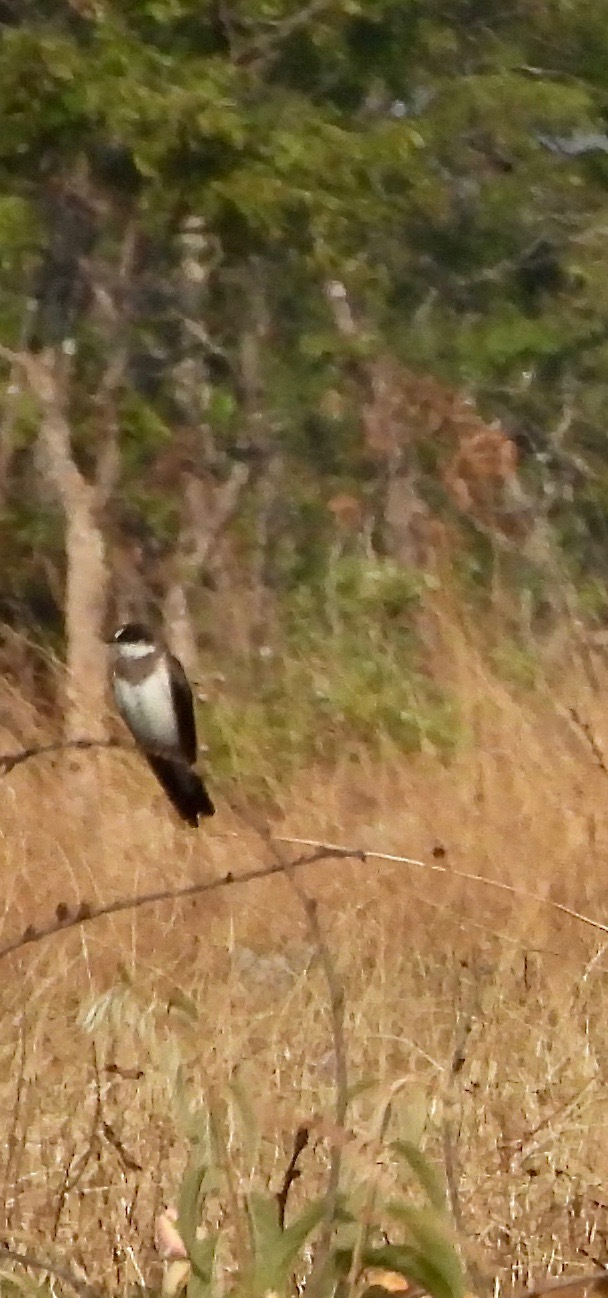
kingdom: Animalia
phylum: Chordata
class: Aves
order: Passeriformes
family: Hirundinidae
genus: Riparia
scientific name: Riparia cincta
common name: Banded martin
